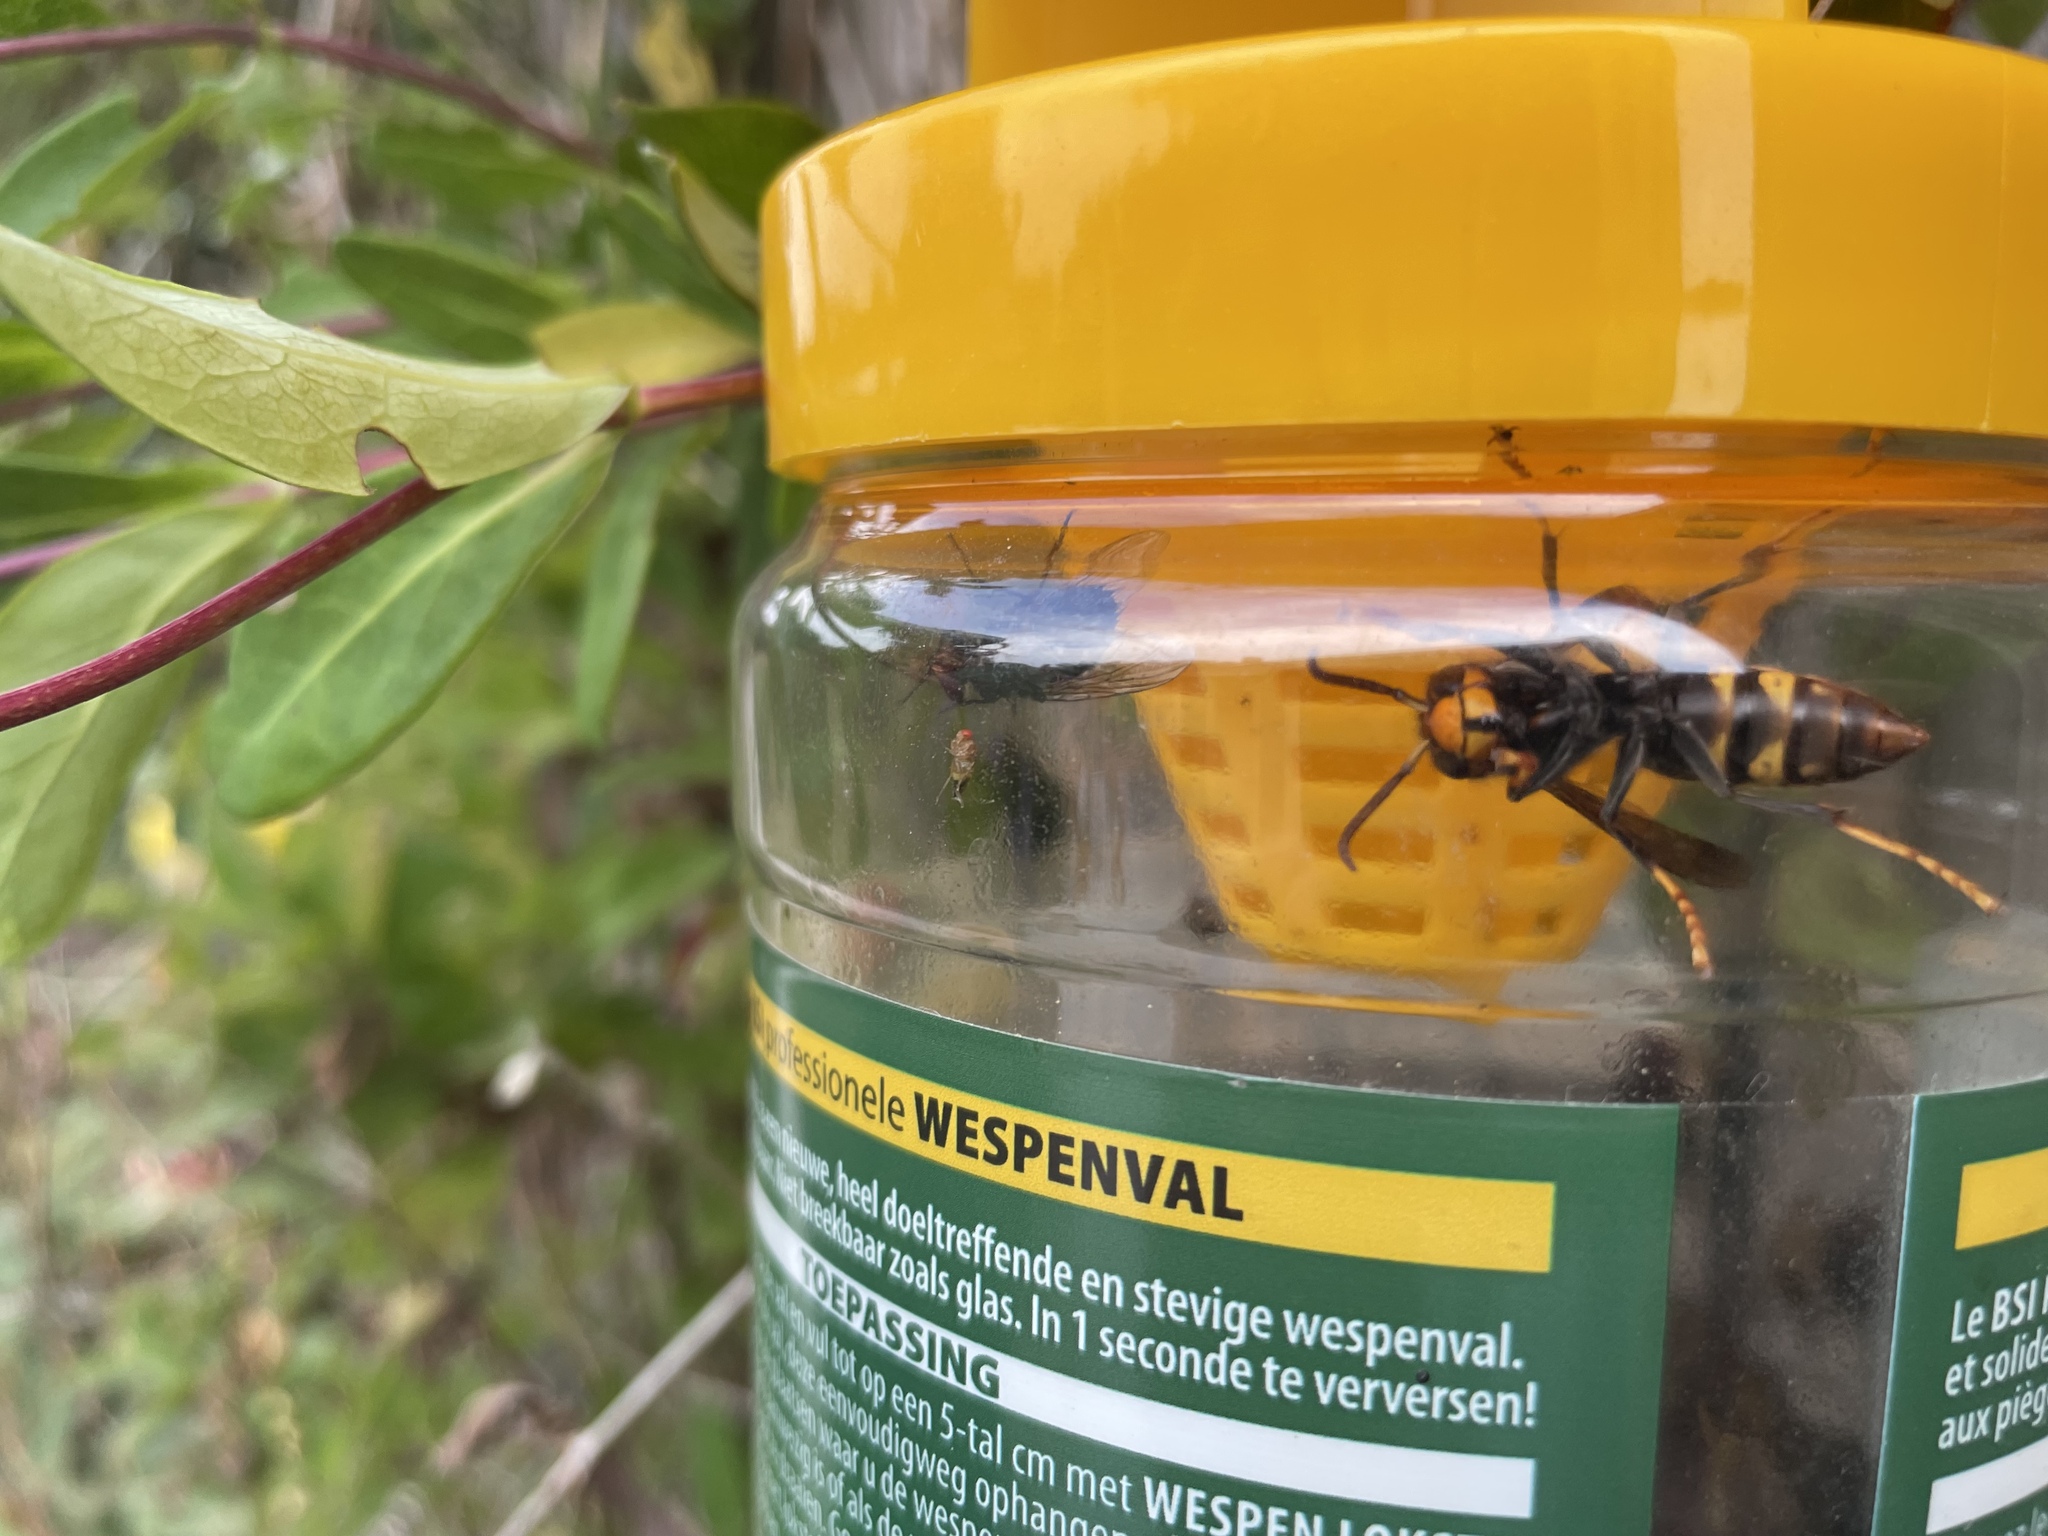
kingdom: Animalia
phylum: Arthropoda
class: Insecta
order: Hymenoptera
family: Vespidae
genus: Vespa
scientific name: Vespa velutina
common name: Asian hornet
